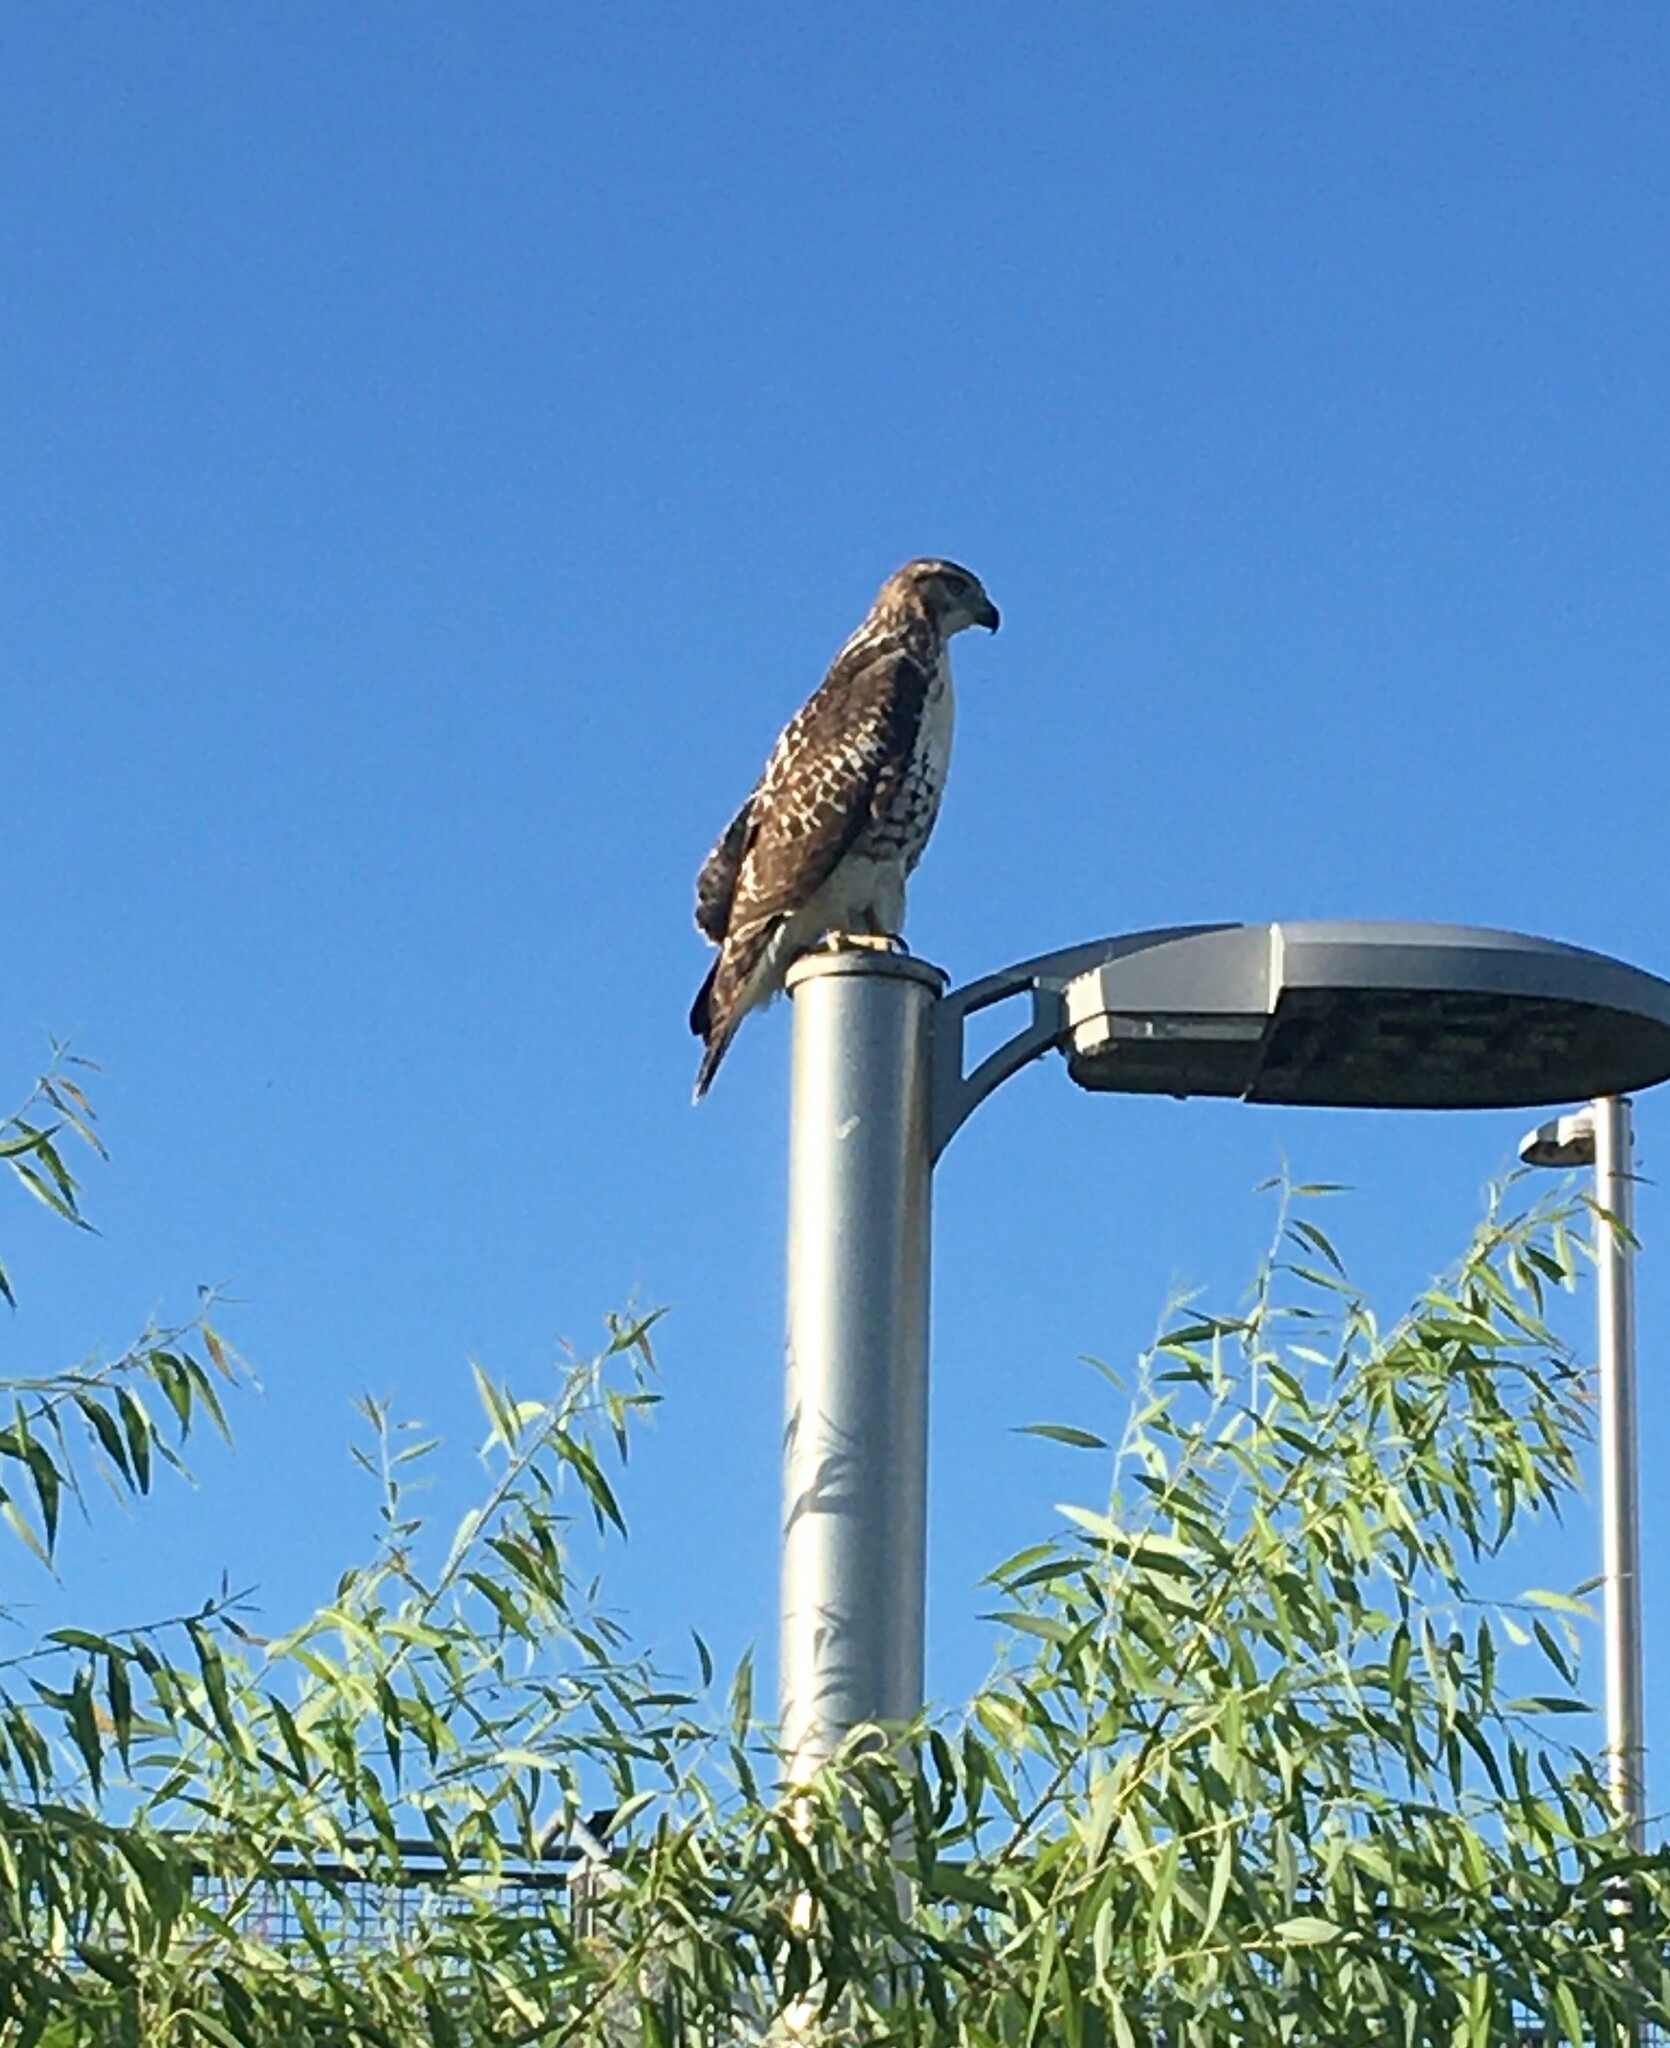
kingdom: Animalia
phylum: Chordata
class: Aves
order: Accipitriformes
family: Accipitridae
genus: Buteo
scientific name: Buteo jamaicensis
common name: Red-tailed hawk
